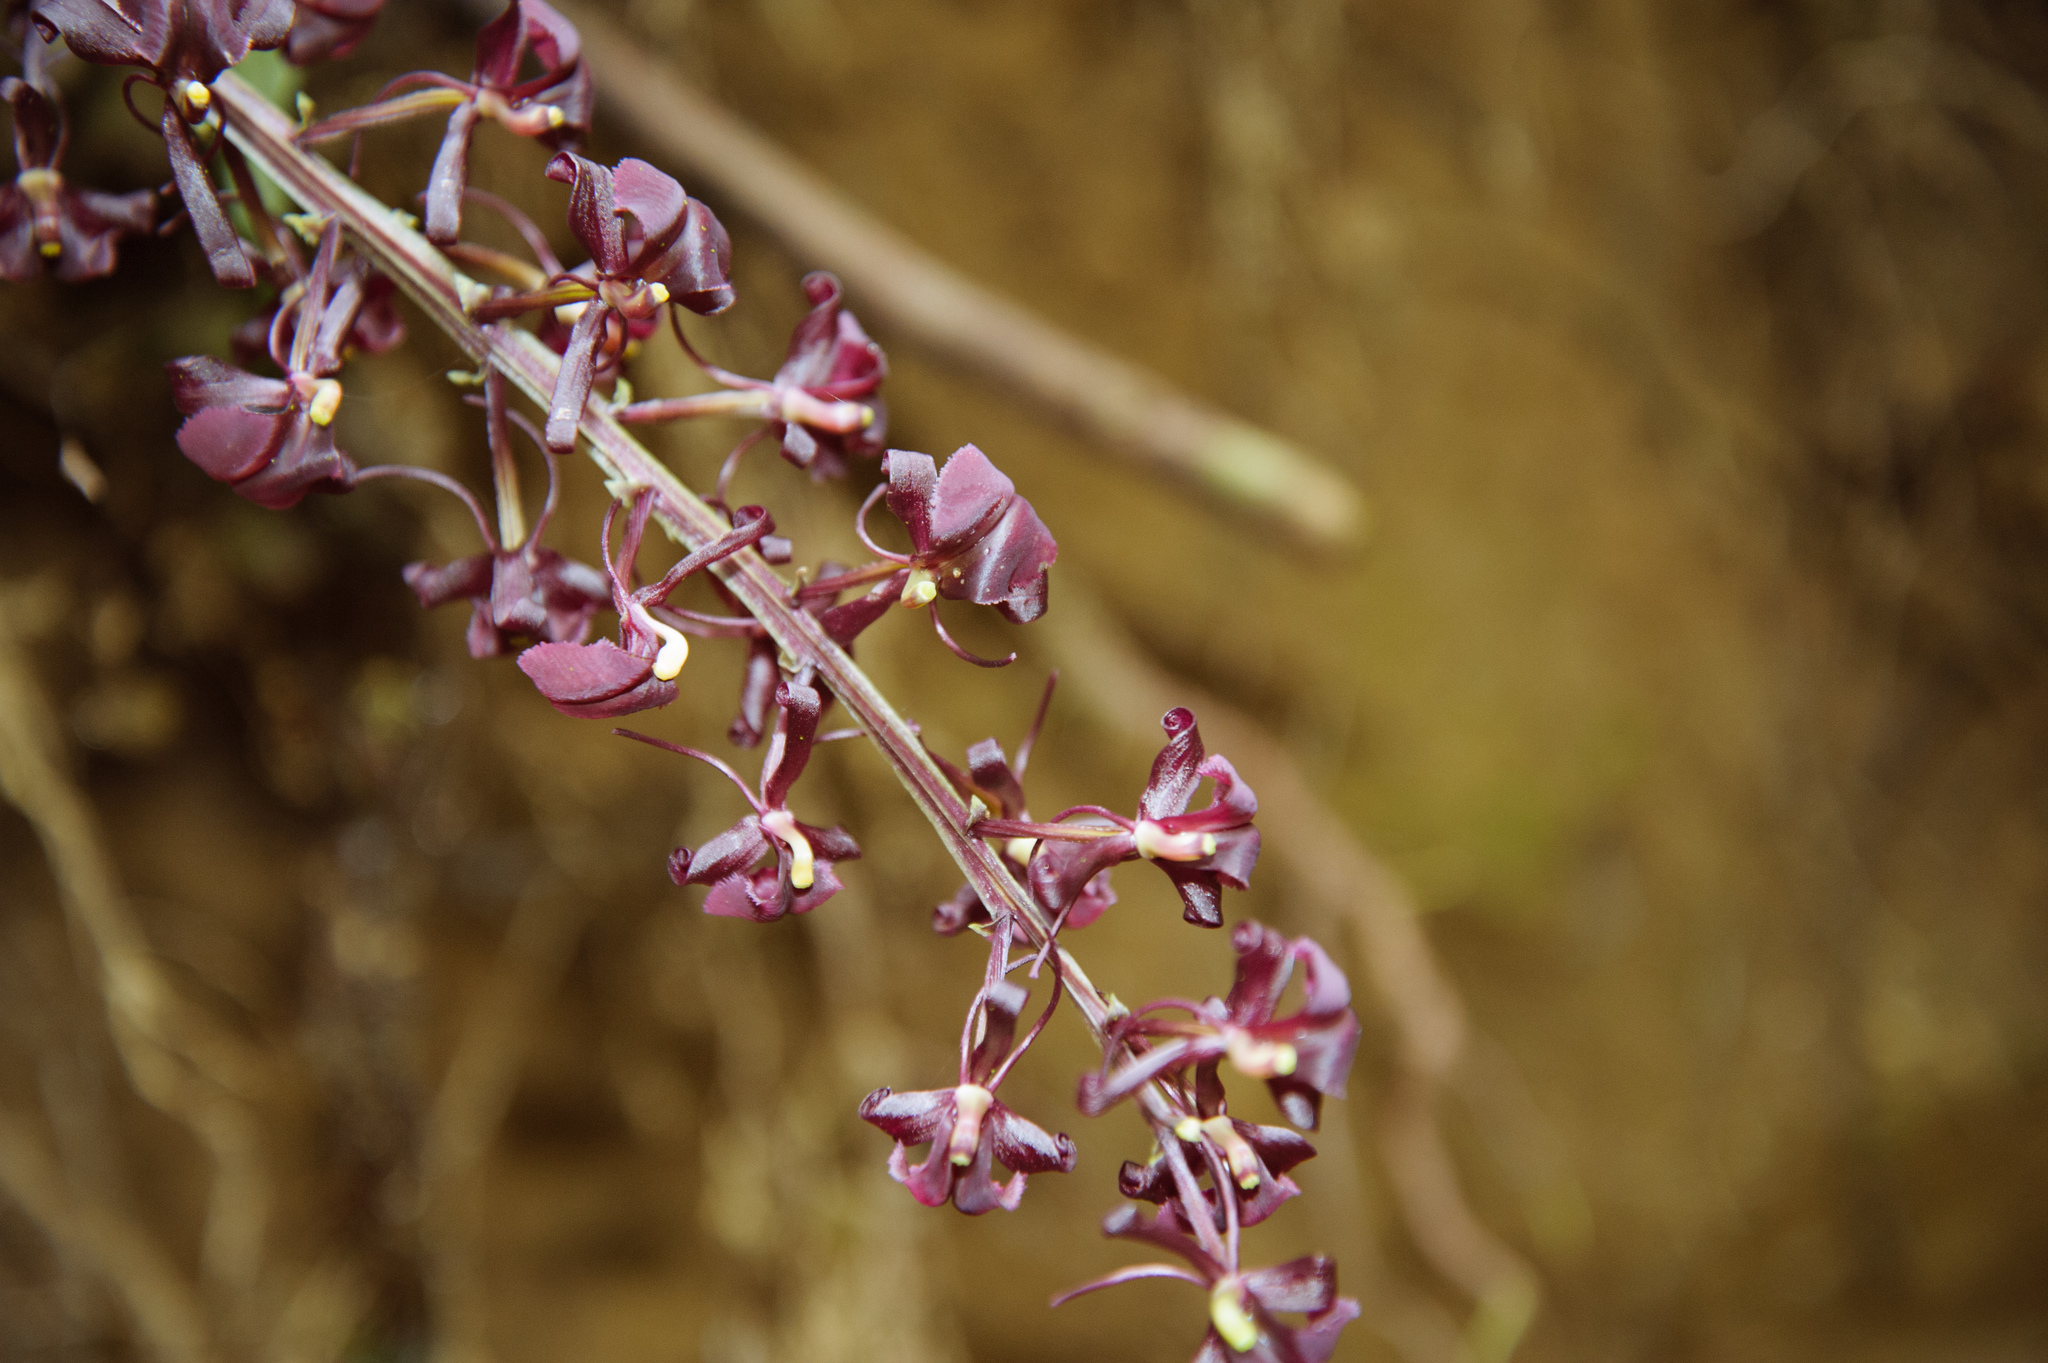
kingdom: Plantae
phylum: Tracheophyta
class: Liliopsida
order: Asparagales
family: Orchidaceae
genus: Liparis
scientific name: Liparis gigantea
